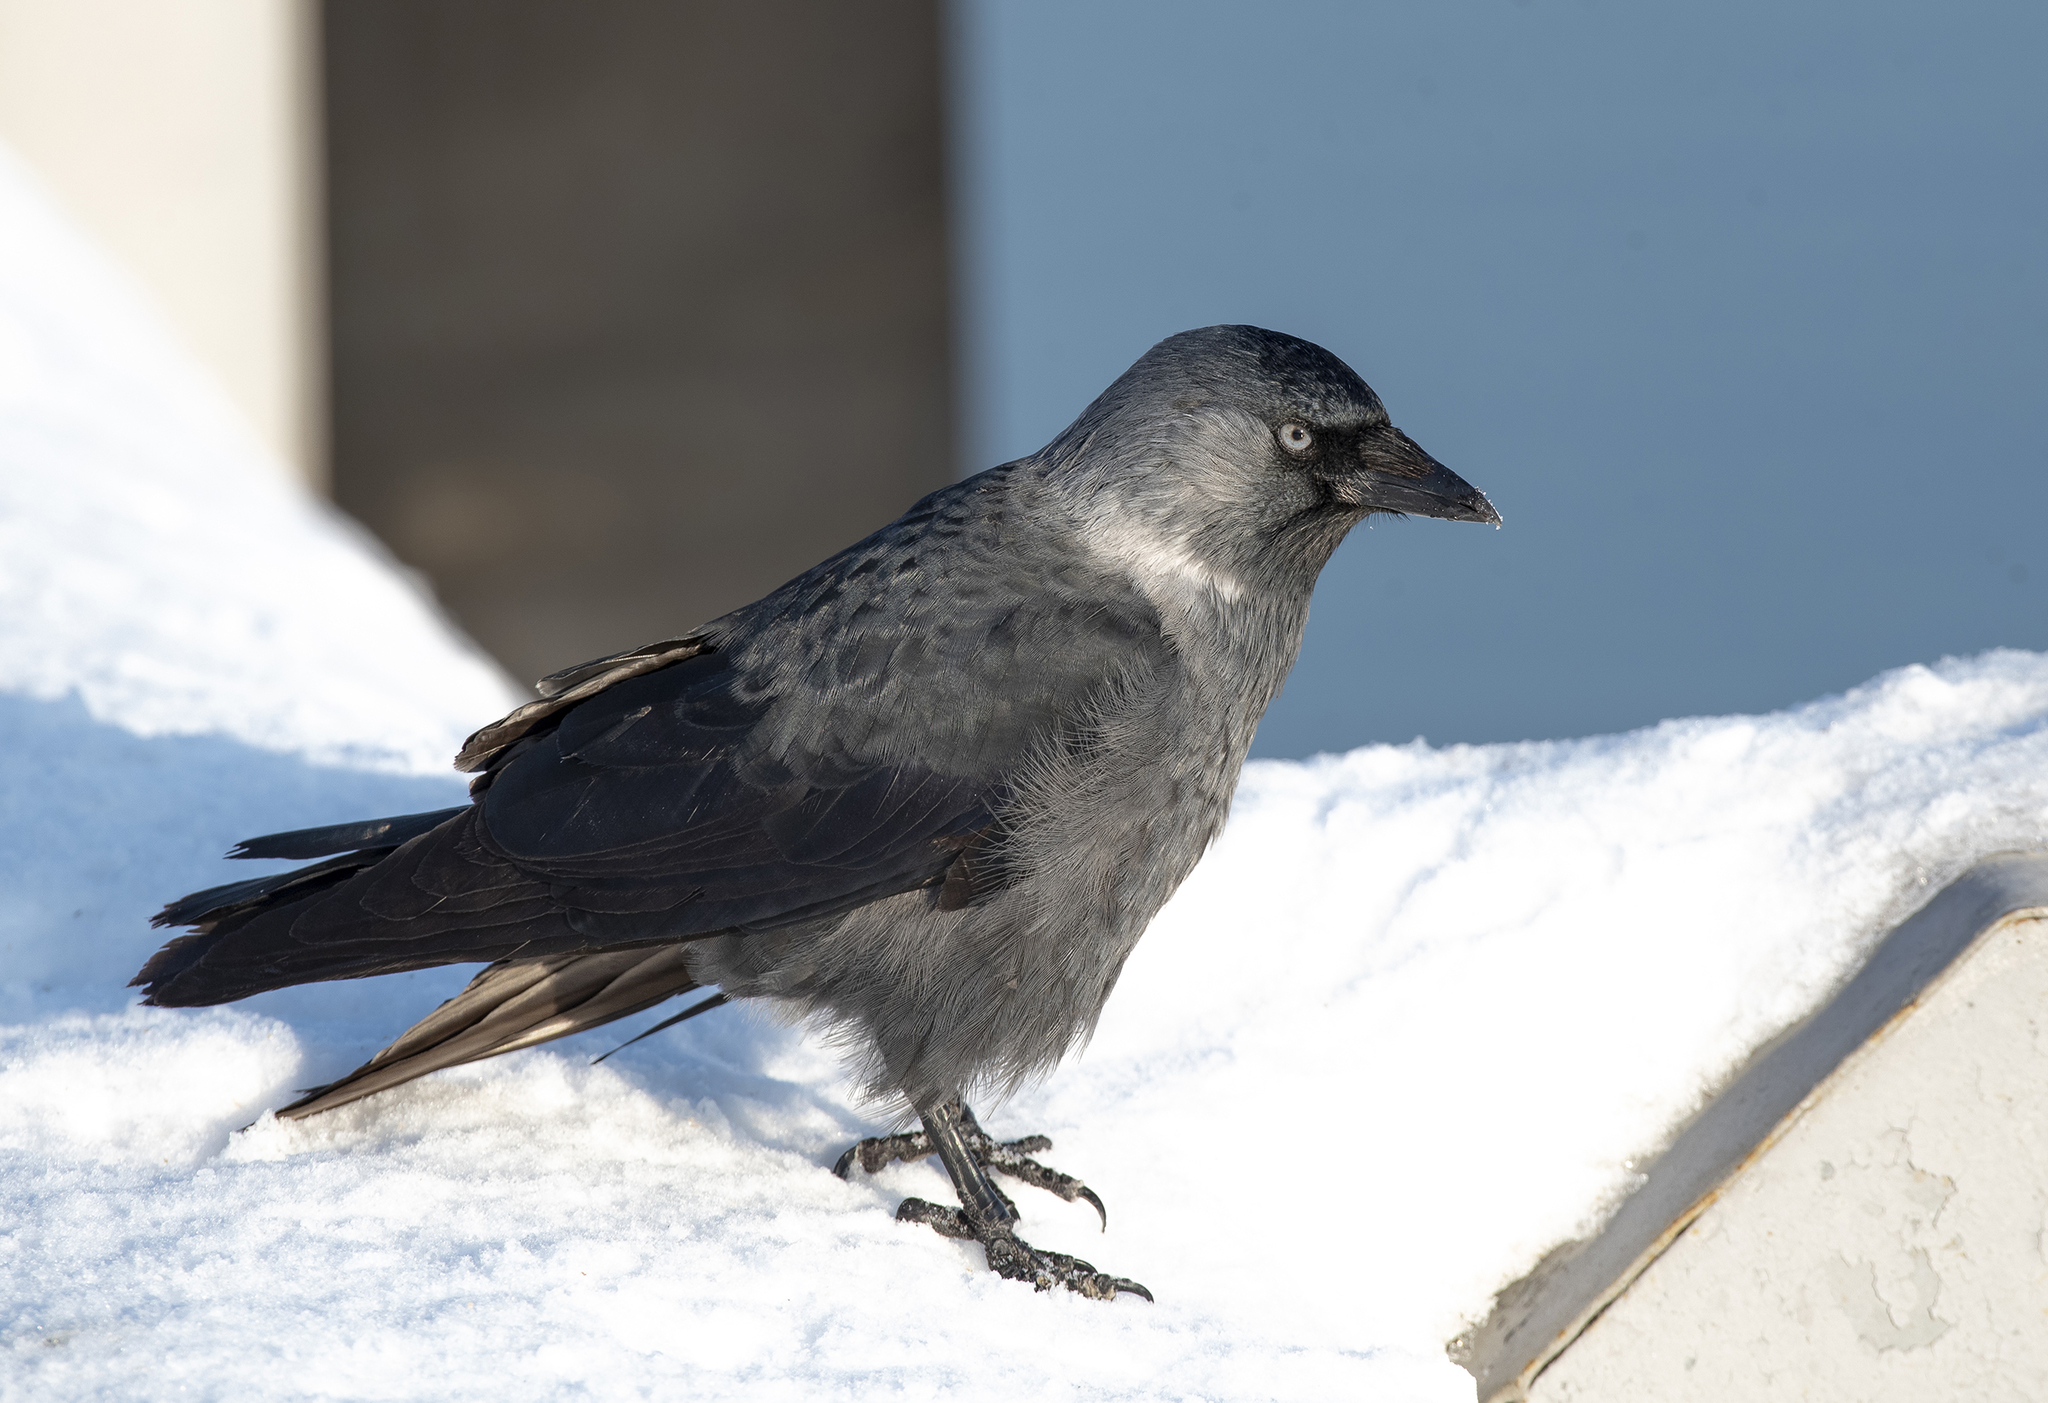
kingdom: Animalia
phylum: Chordata
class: Aves
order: Passeriformes
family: Corvidae
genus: Coloeus
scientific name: Coloeus monedula
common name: Western jackdaw
